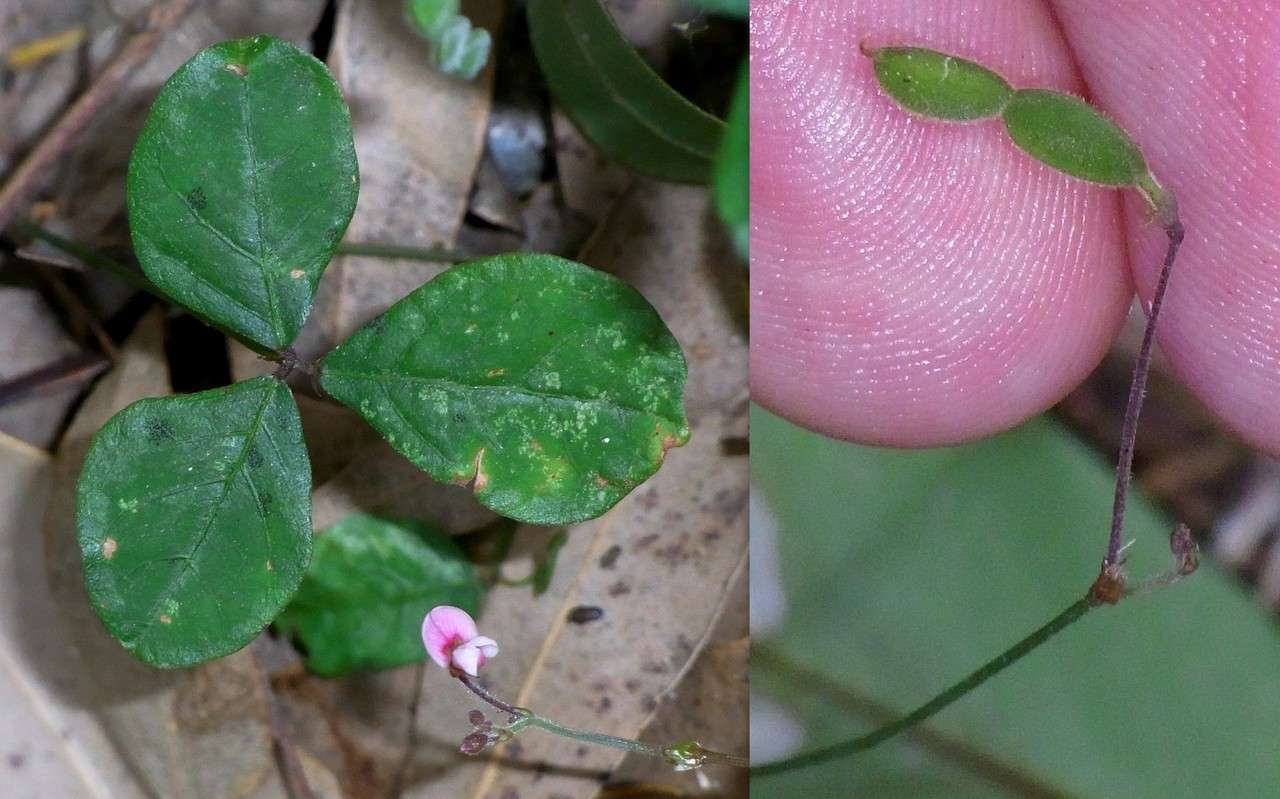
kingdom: Plantae
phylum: Tracheophyta
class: Magnoliopsida
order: Fabales
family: Fabaceae
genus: Pullenia
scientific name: Pullenia gunnii
